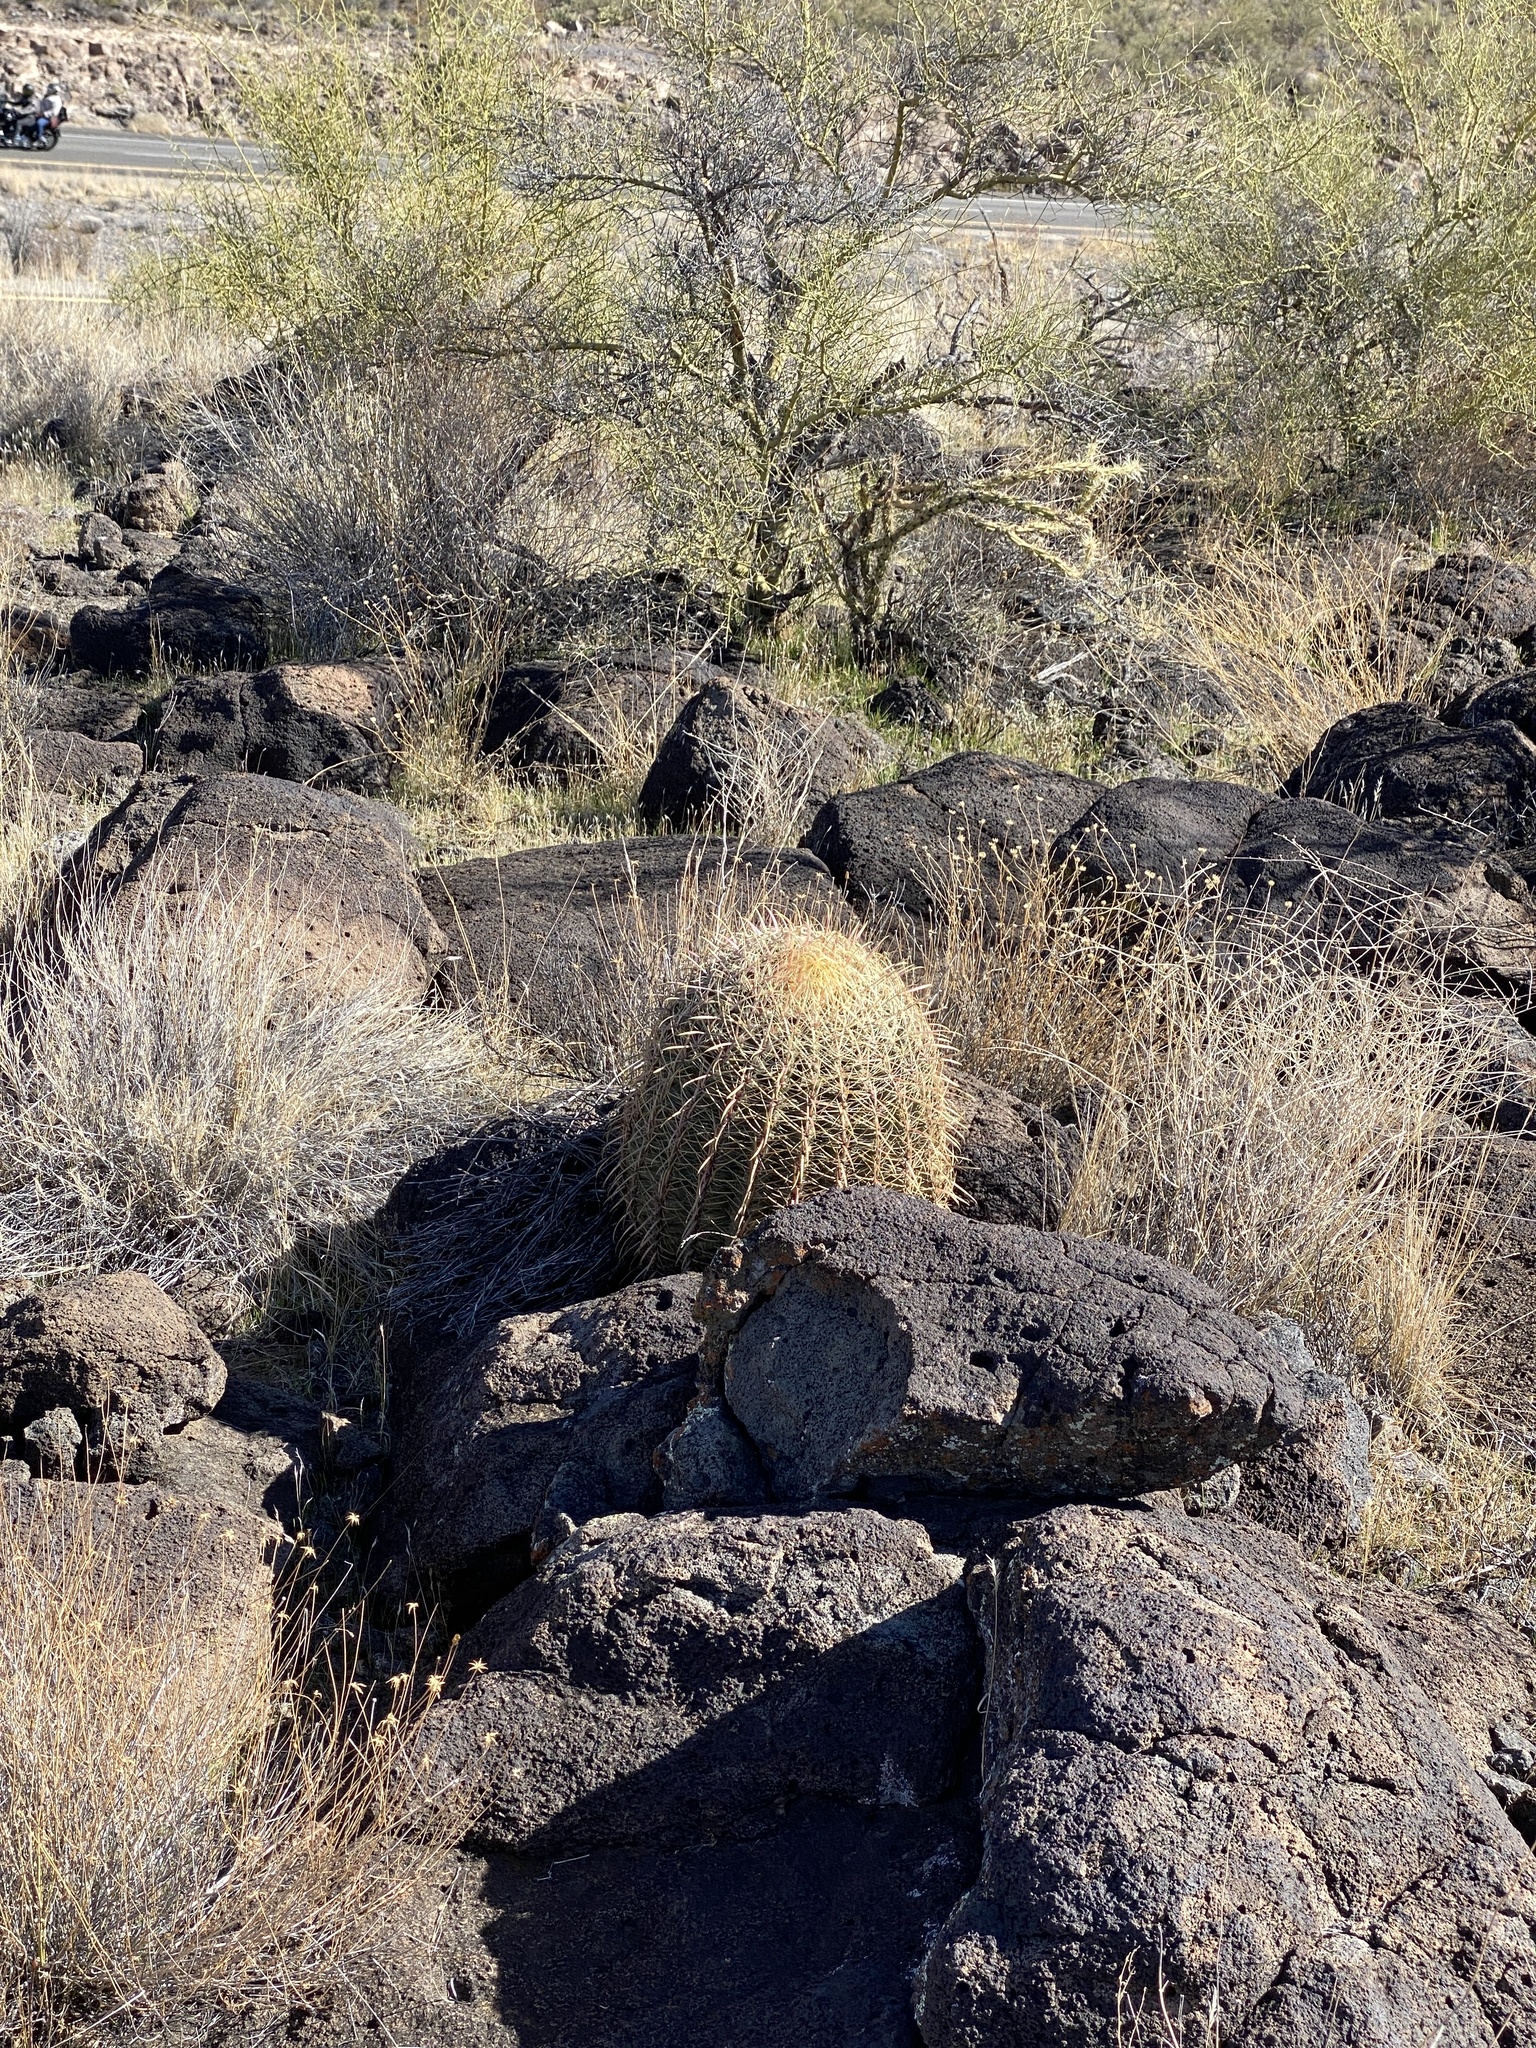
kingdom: Plantae
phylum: Tracheophyta
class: Magnoliopsida
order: Caryophyllales
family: Cactaceae
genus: Ferocactus
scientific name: Ferocactus cylindraceus
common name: California barrel cactus
